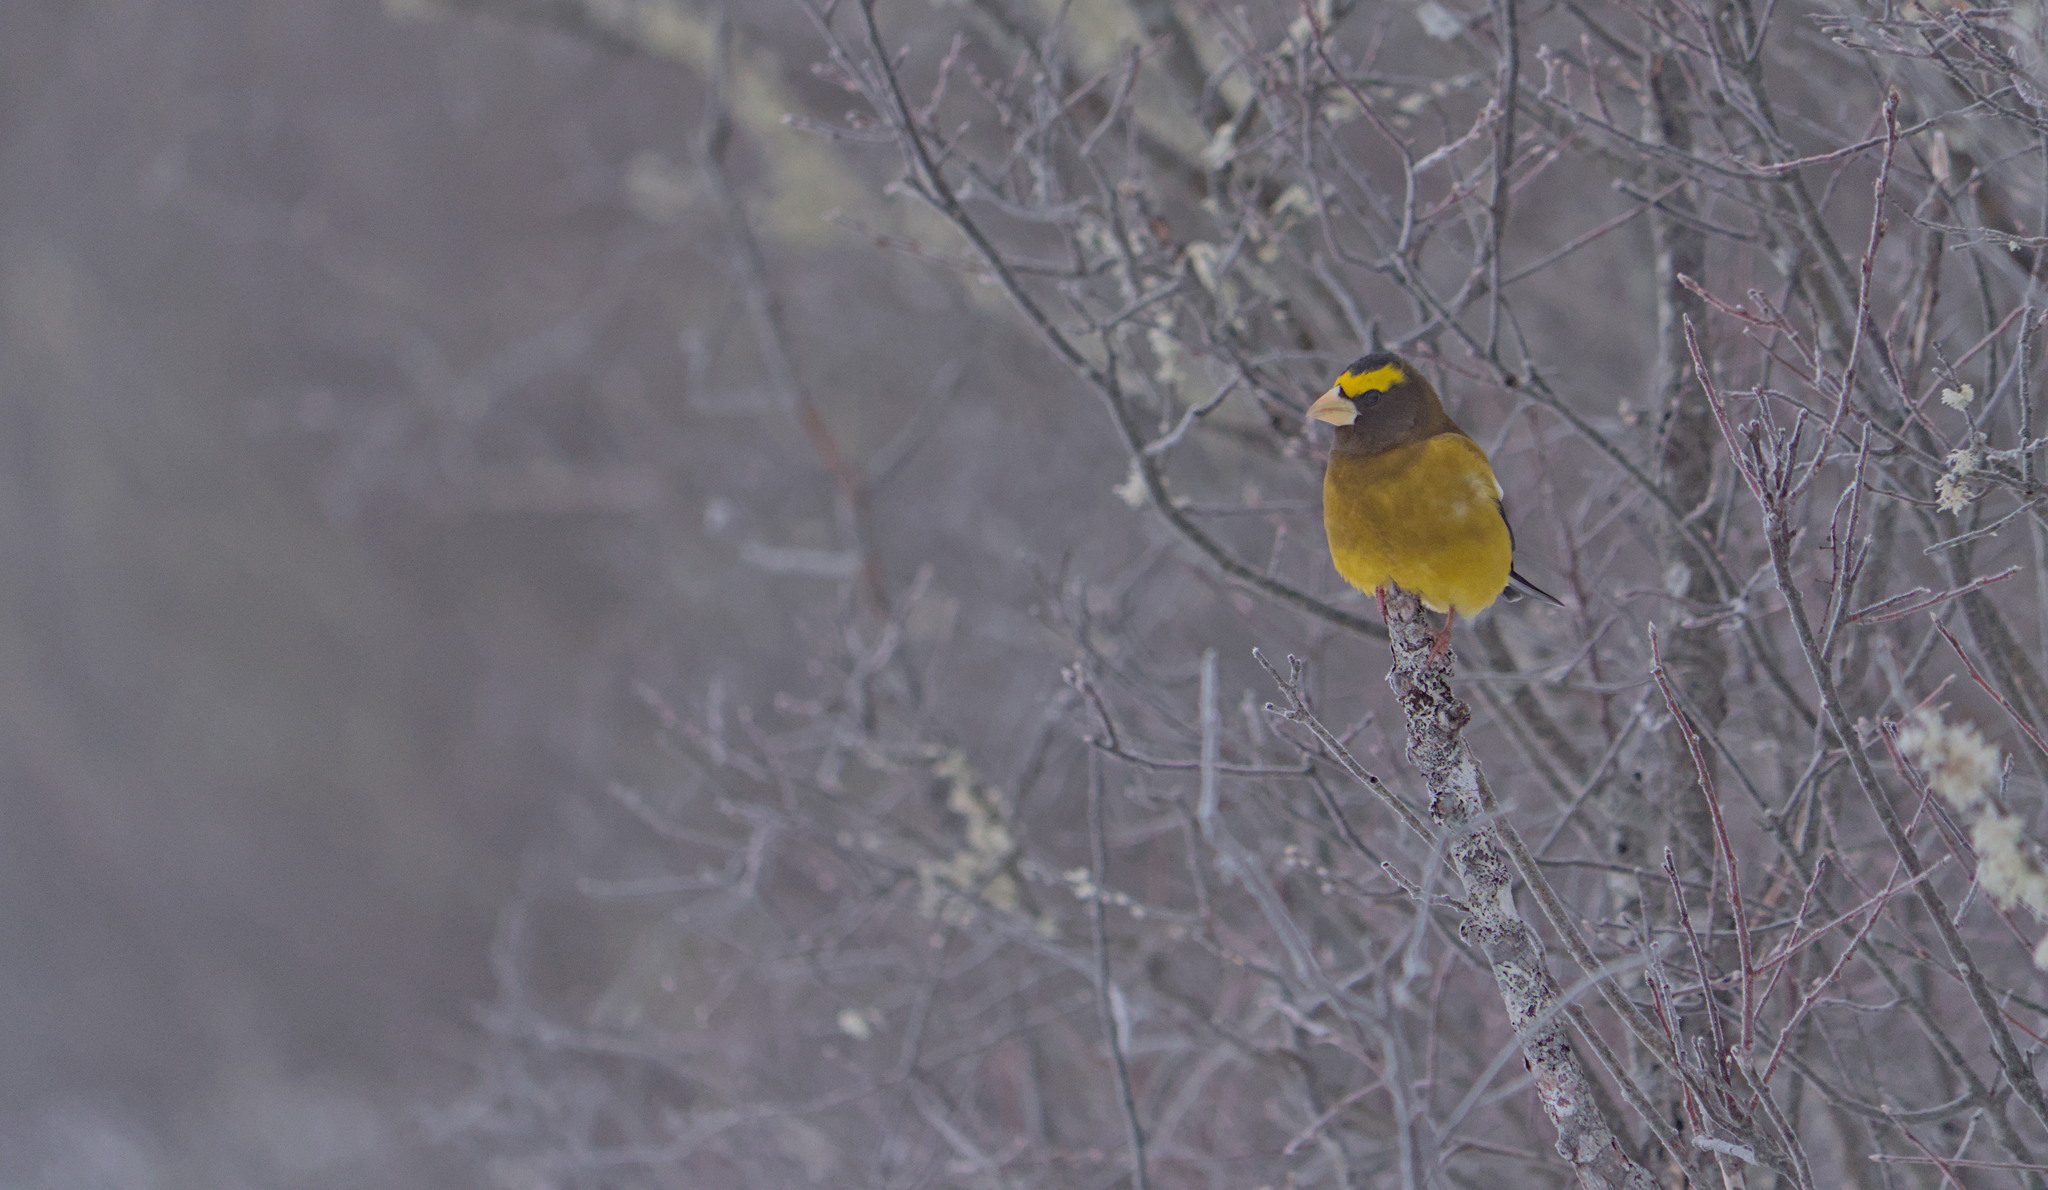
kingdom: Animalia
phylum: Chordata
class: Aves
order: Passeriformes
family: Fringillidae
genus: Hesperiphona
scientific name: Hesperiphona vespertina
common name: Evening grosbeak
